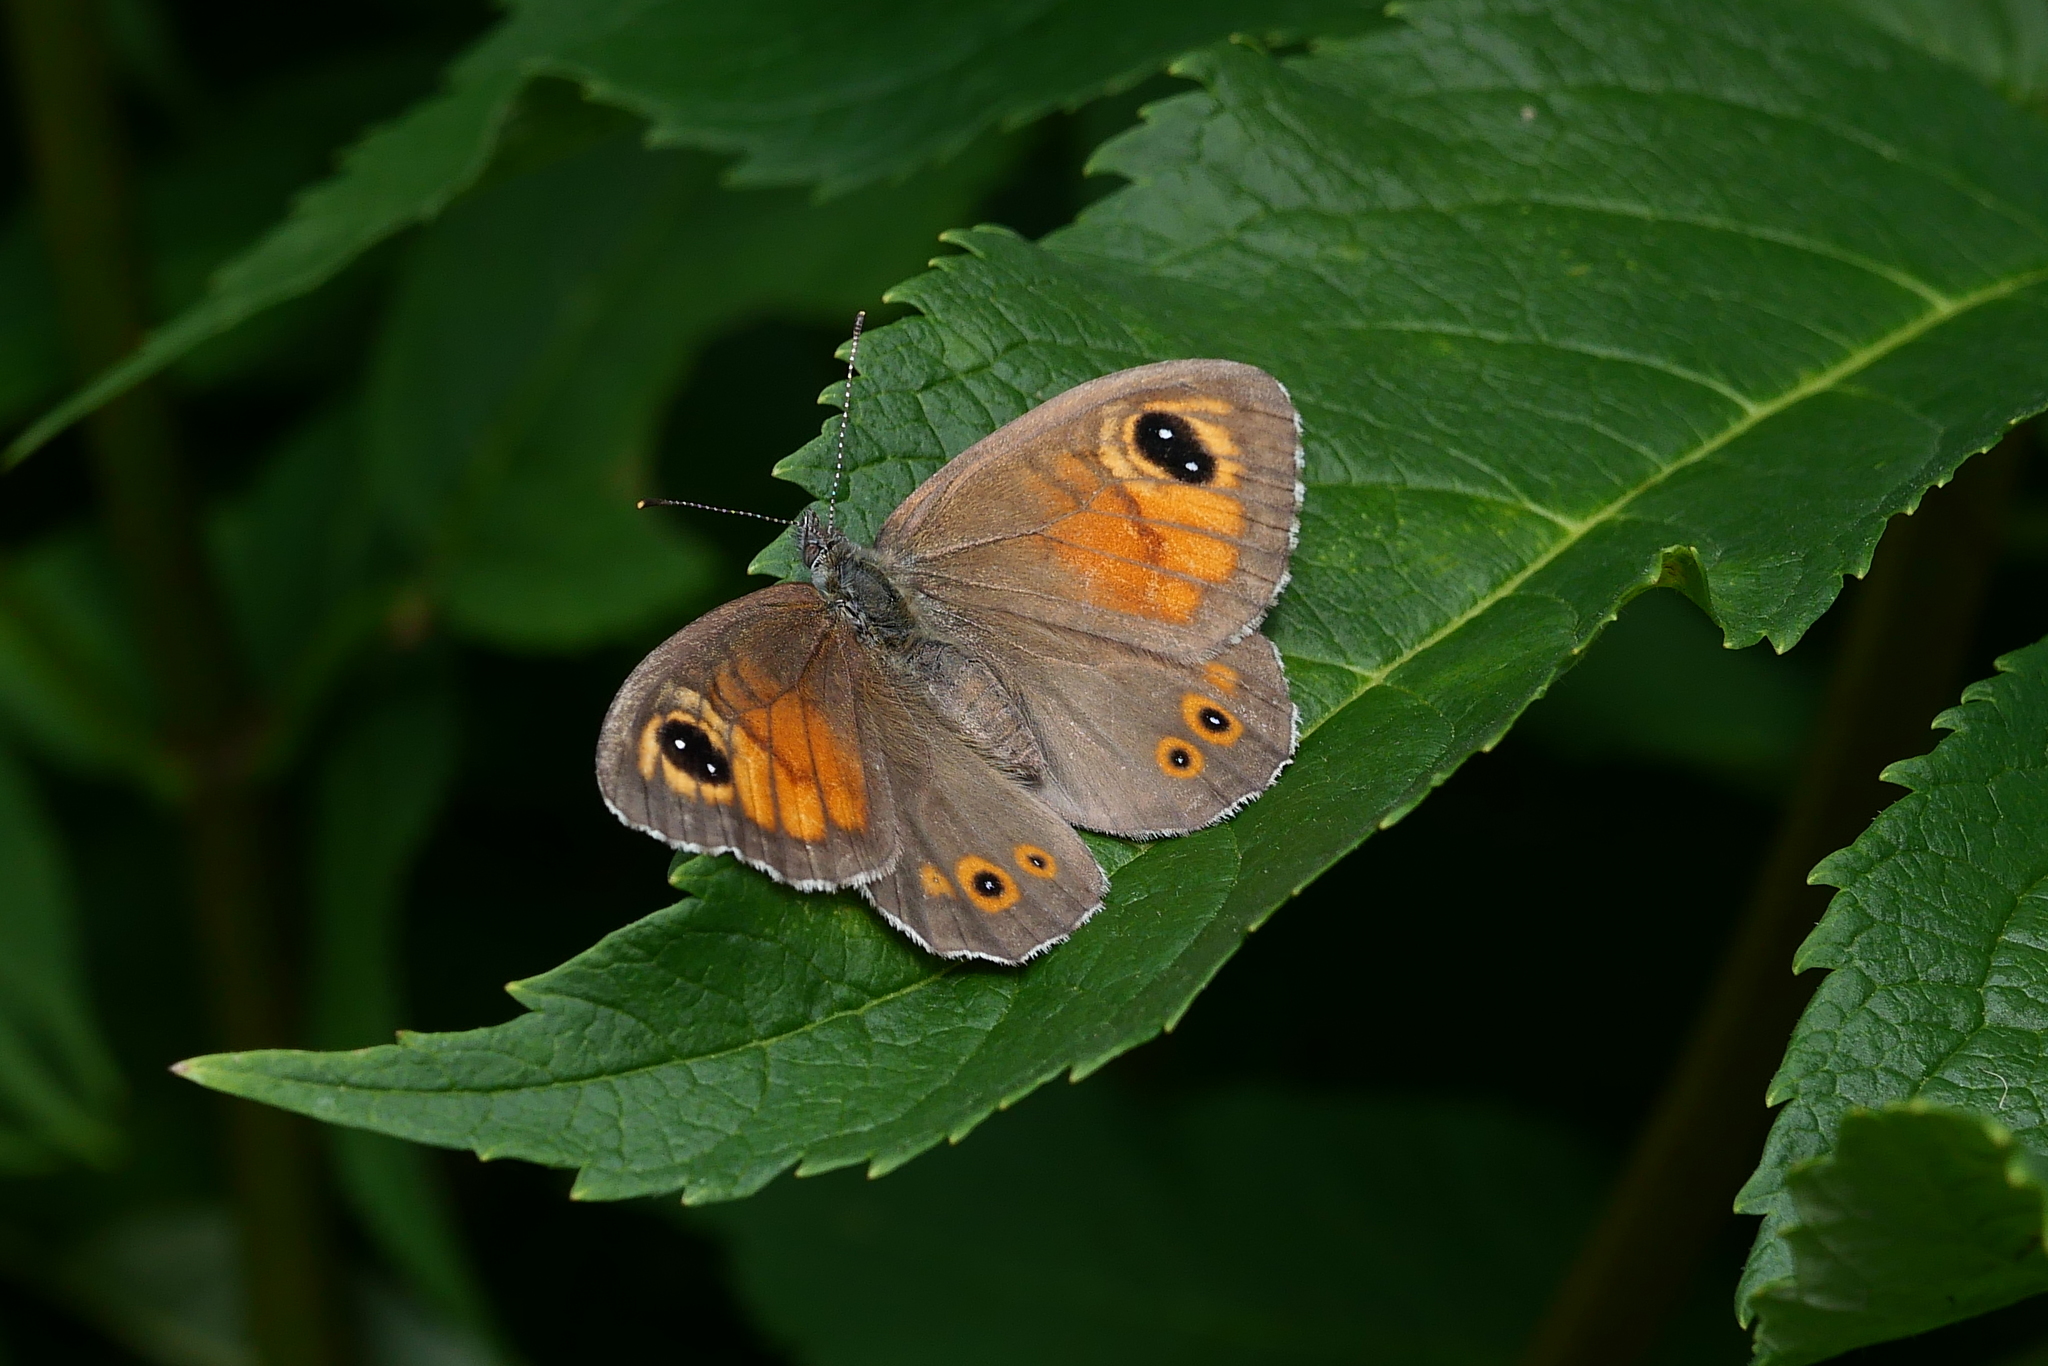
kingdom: Animalia
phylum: Arthropoda
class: Insecta
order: Lepidoptera
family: Nymphalidae
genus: Pararge
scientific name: Pararge Lasiommata maera
